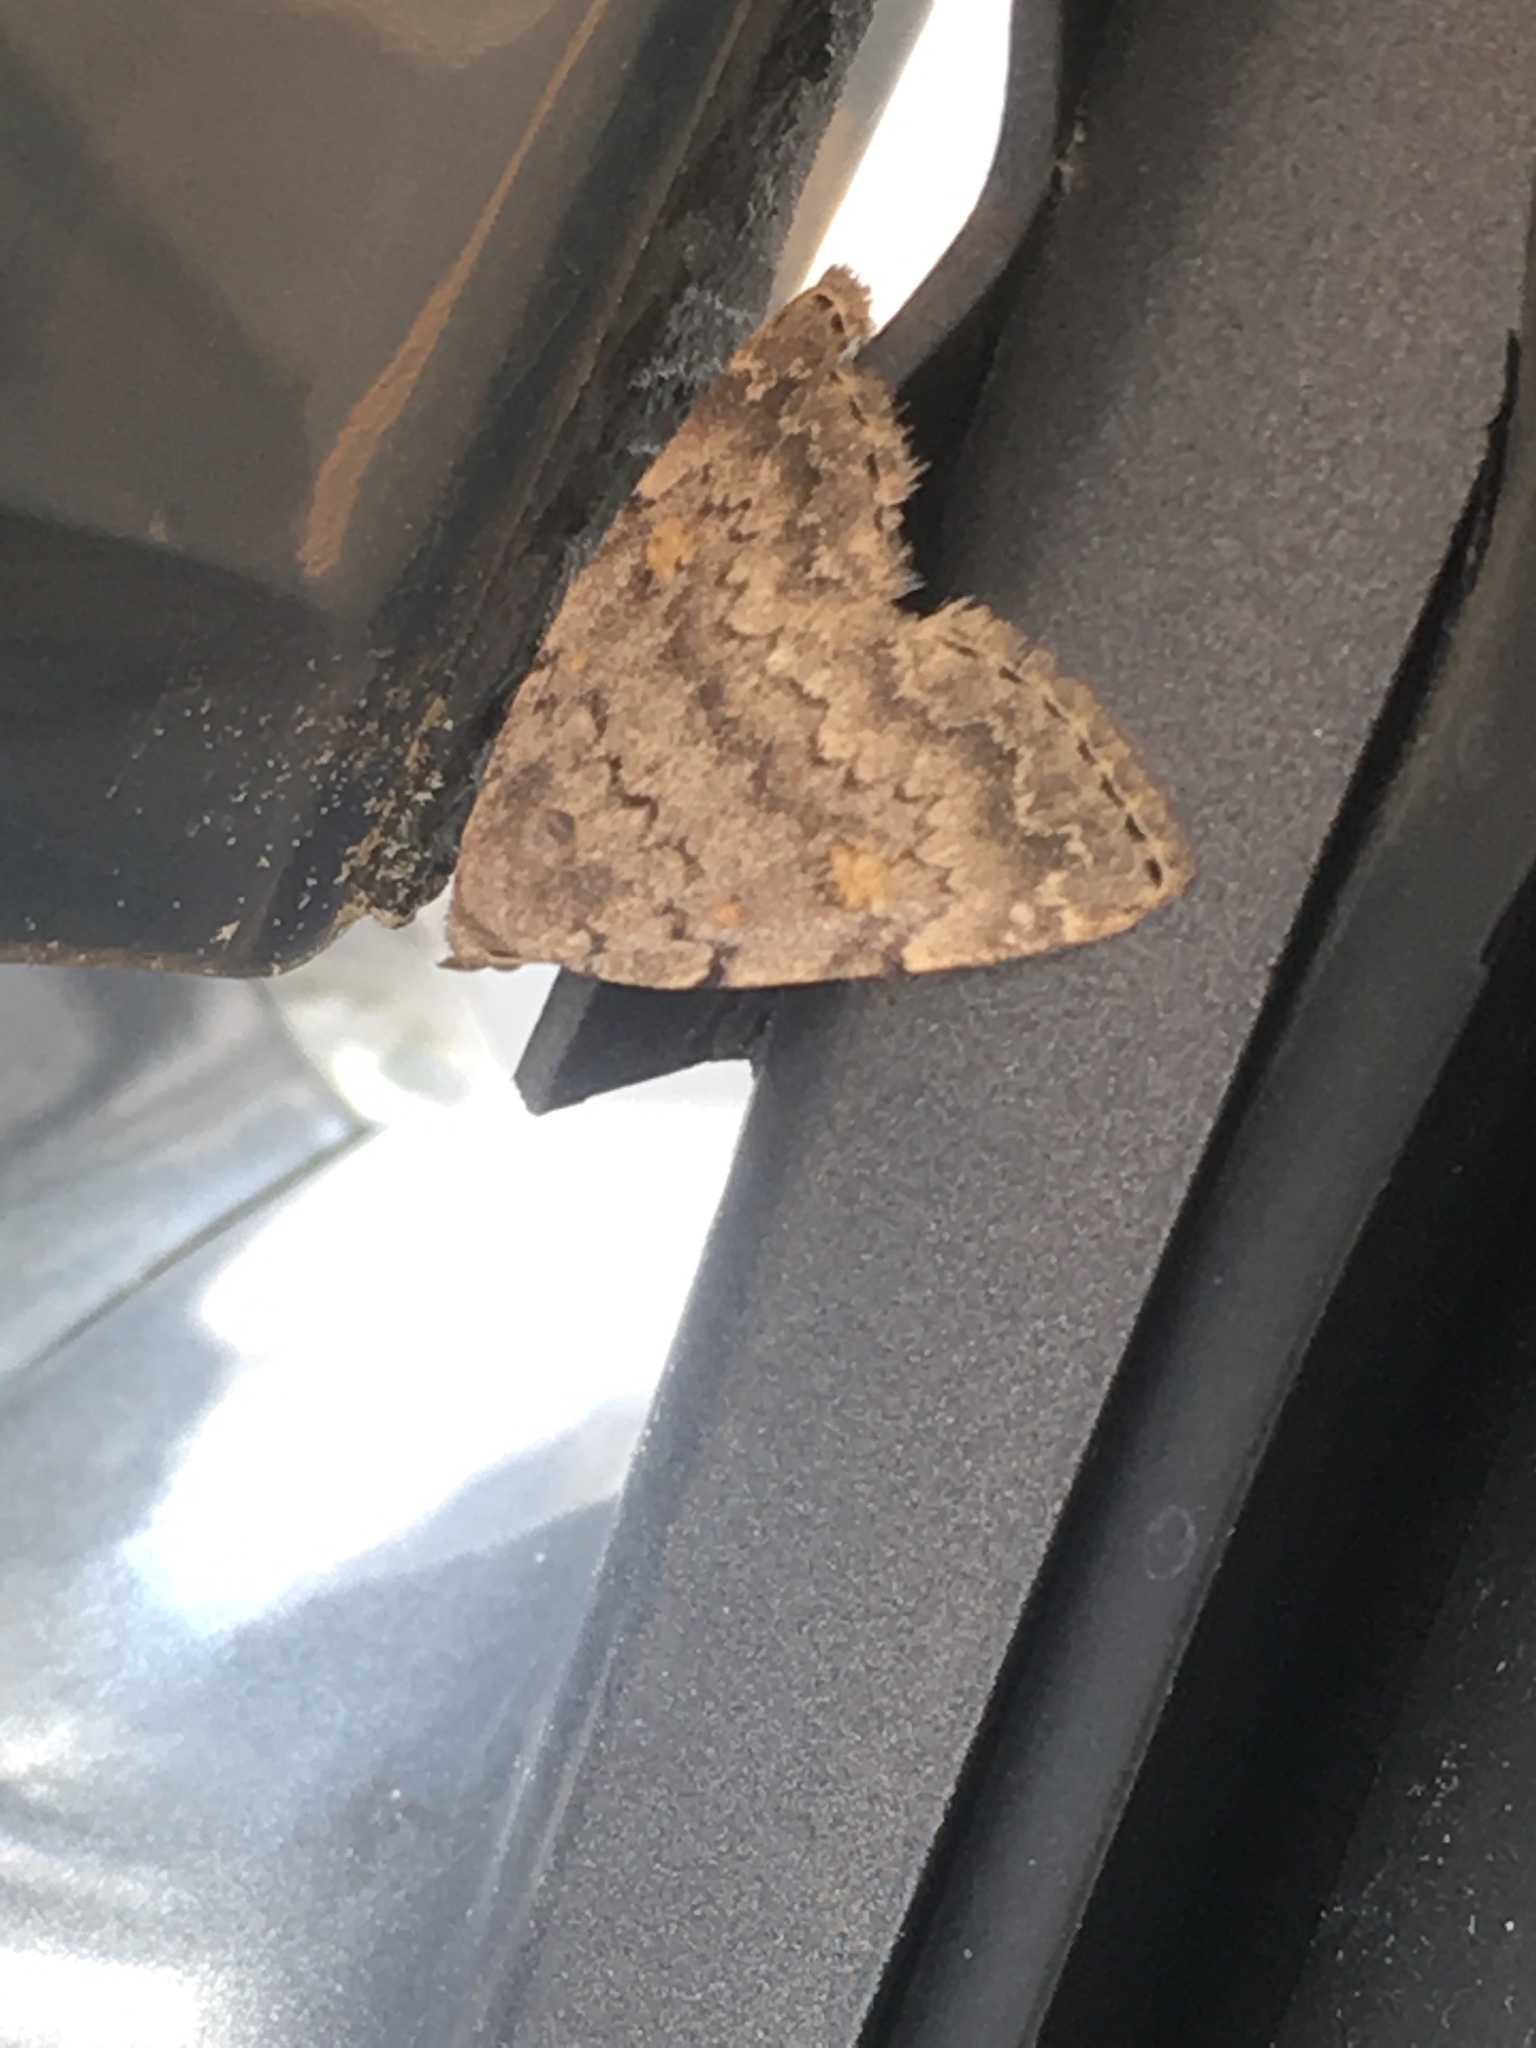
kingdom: Animalia
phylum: Arthropoda
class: Insecta
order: Lepidoptera
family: Erebidae
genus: Idia
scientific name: Idia aemula
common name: Common idia moth
